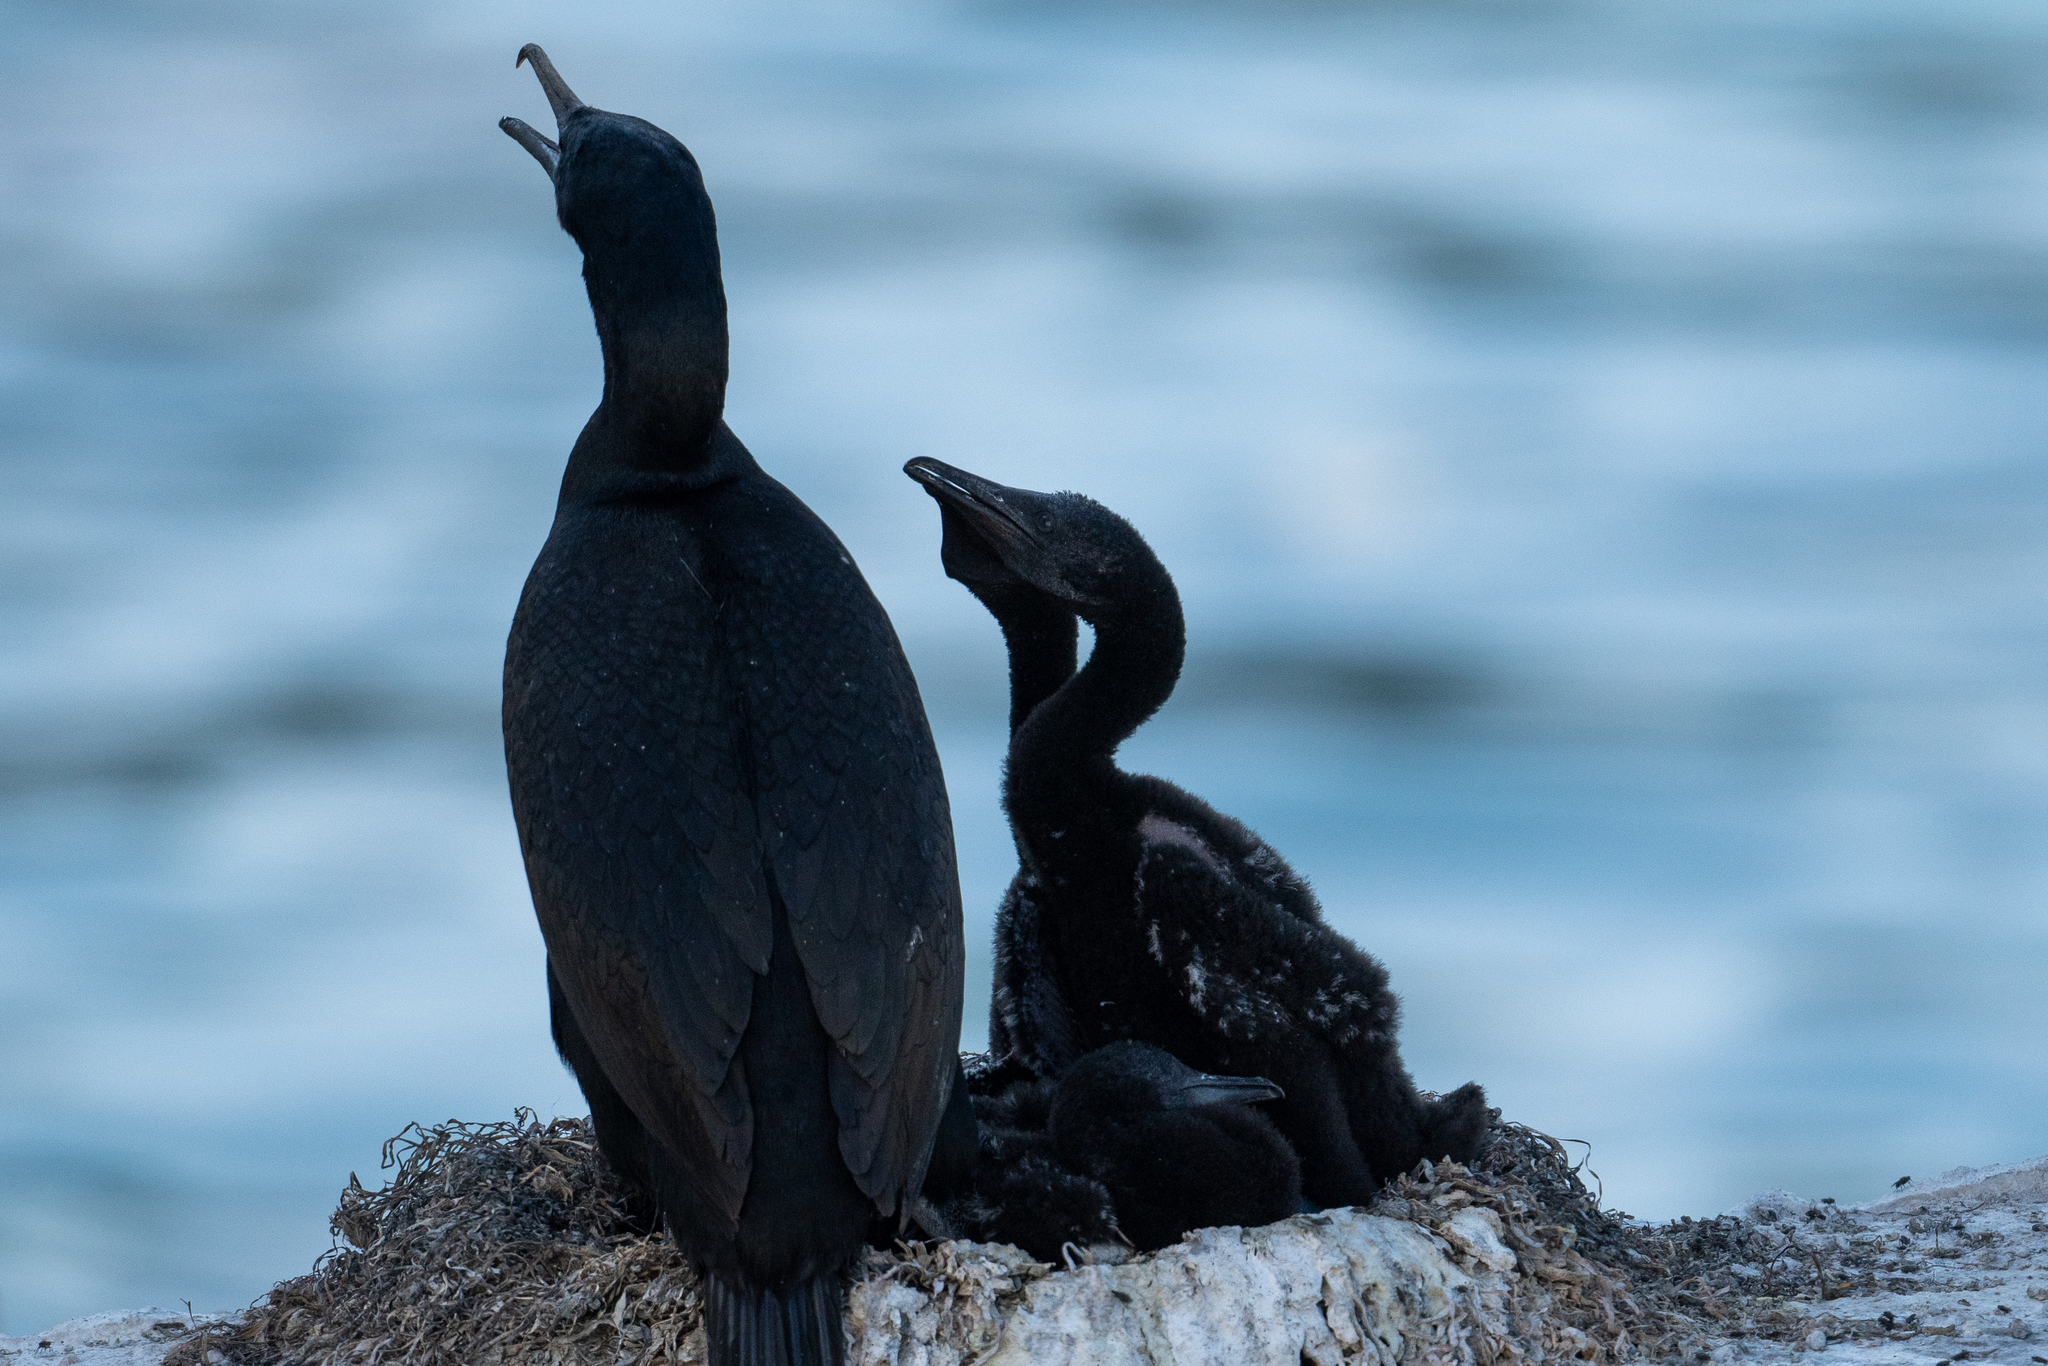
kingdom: Animalia
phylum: Chordata
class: Aves
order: Suliformes
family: Phalacrocoracidae
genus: Urile
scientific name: Urile penicillatus
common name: Brandt's cormorant
